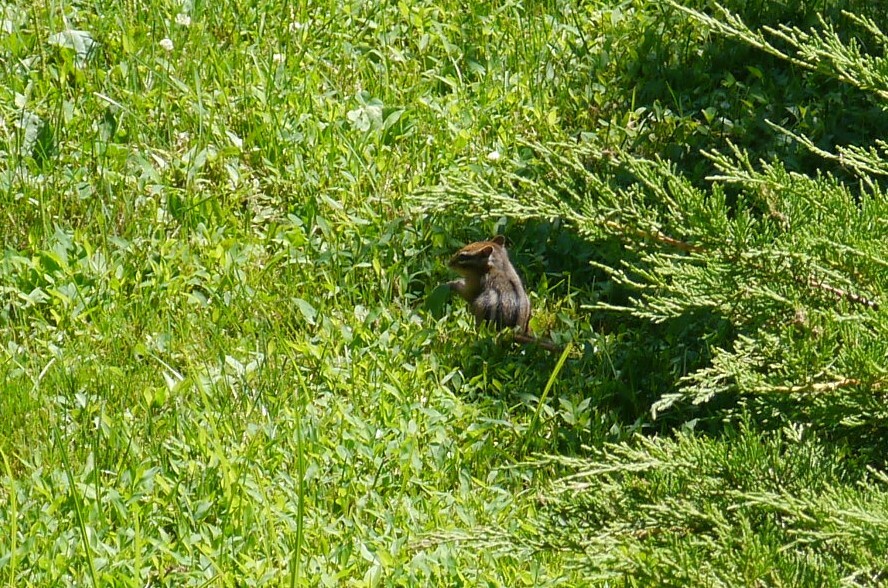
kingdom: Animalia
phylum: Chordata
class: Mammalia
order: Rodentia
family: Sciuridae
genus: Tamias
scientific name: Tamias striatus
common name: Eastern chipmunk
